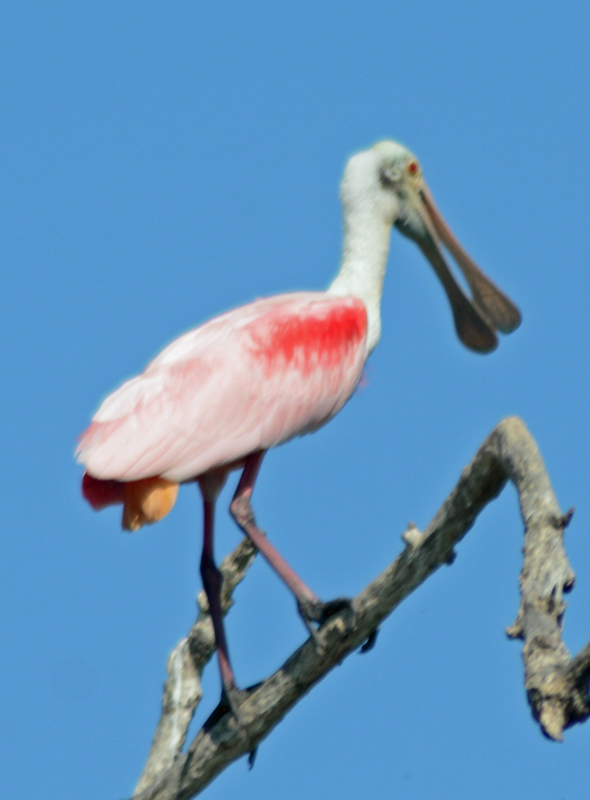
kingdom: Animalia
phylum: Chordata
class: Aves
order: Pelecaniformes
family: Threskiornithidae
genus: Platalea
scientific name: Platalea ajaja
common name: Roseate spoonbill
